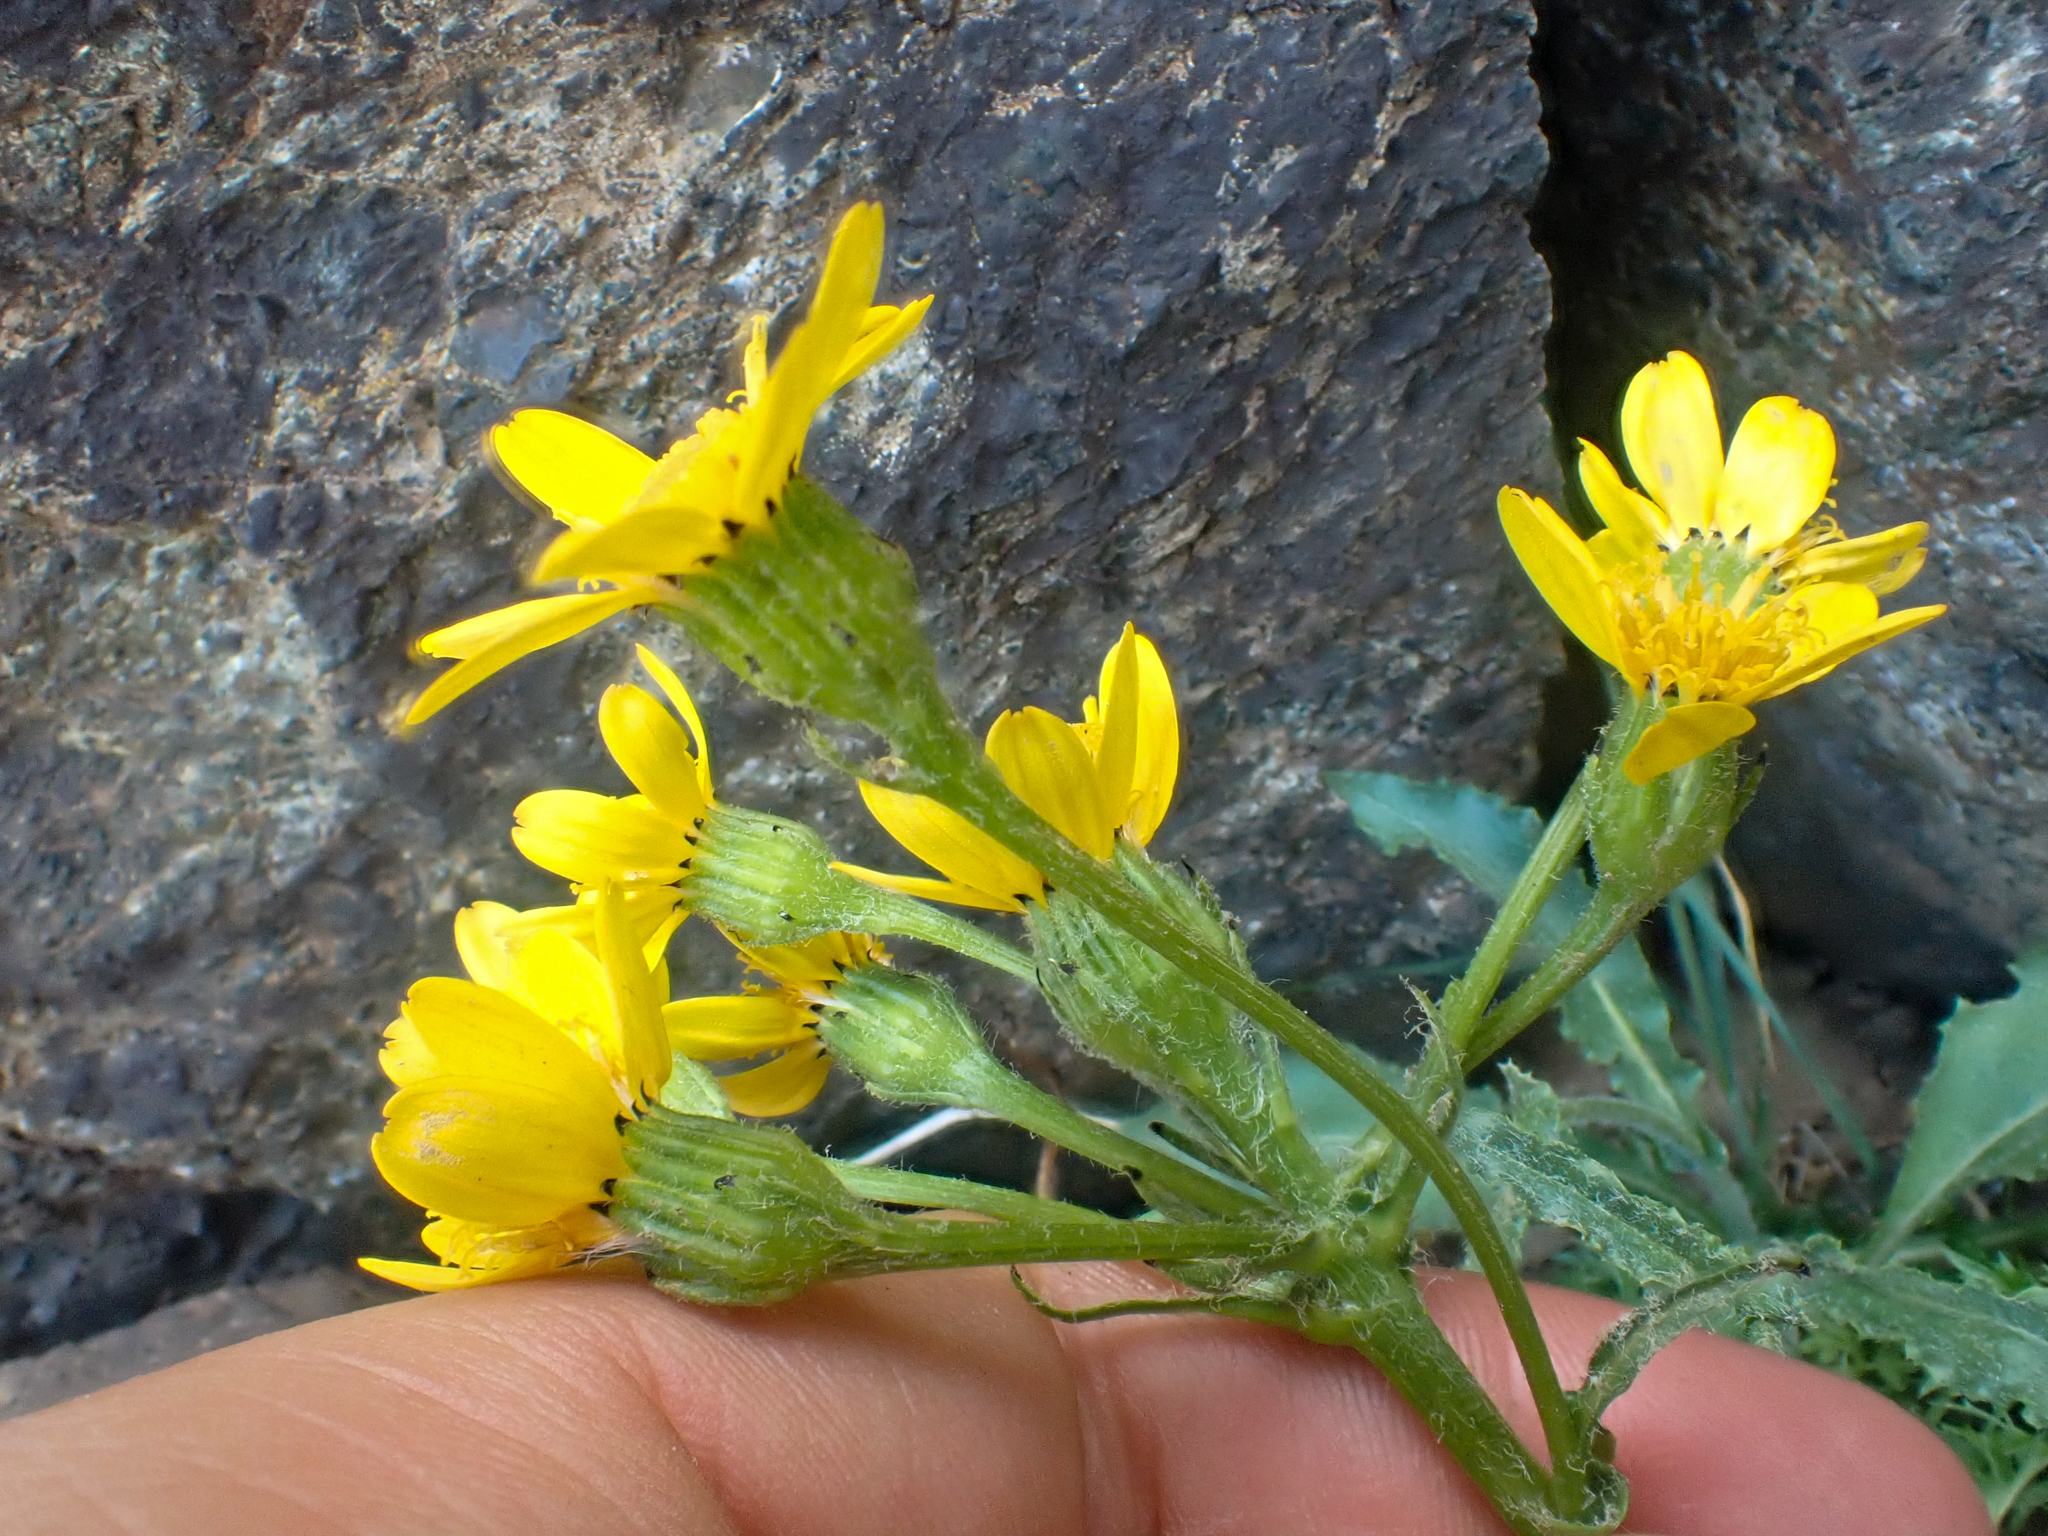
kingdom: Plantae
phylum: Tracheophyta
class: Magnoliopsida
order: Asterales
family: Asteraceae
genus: Senecio
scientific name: Senecio integerrimus
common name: Gaugeplant
